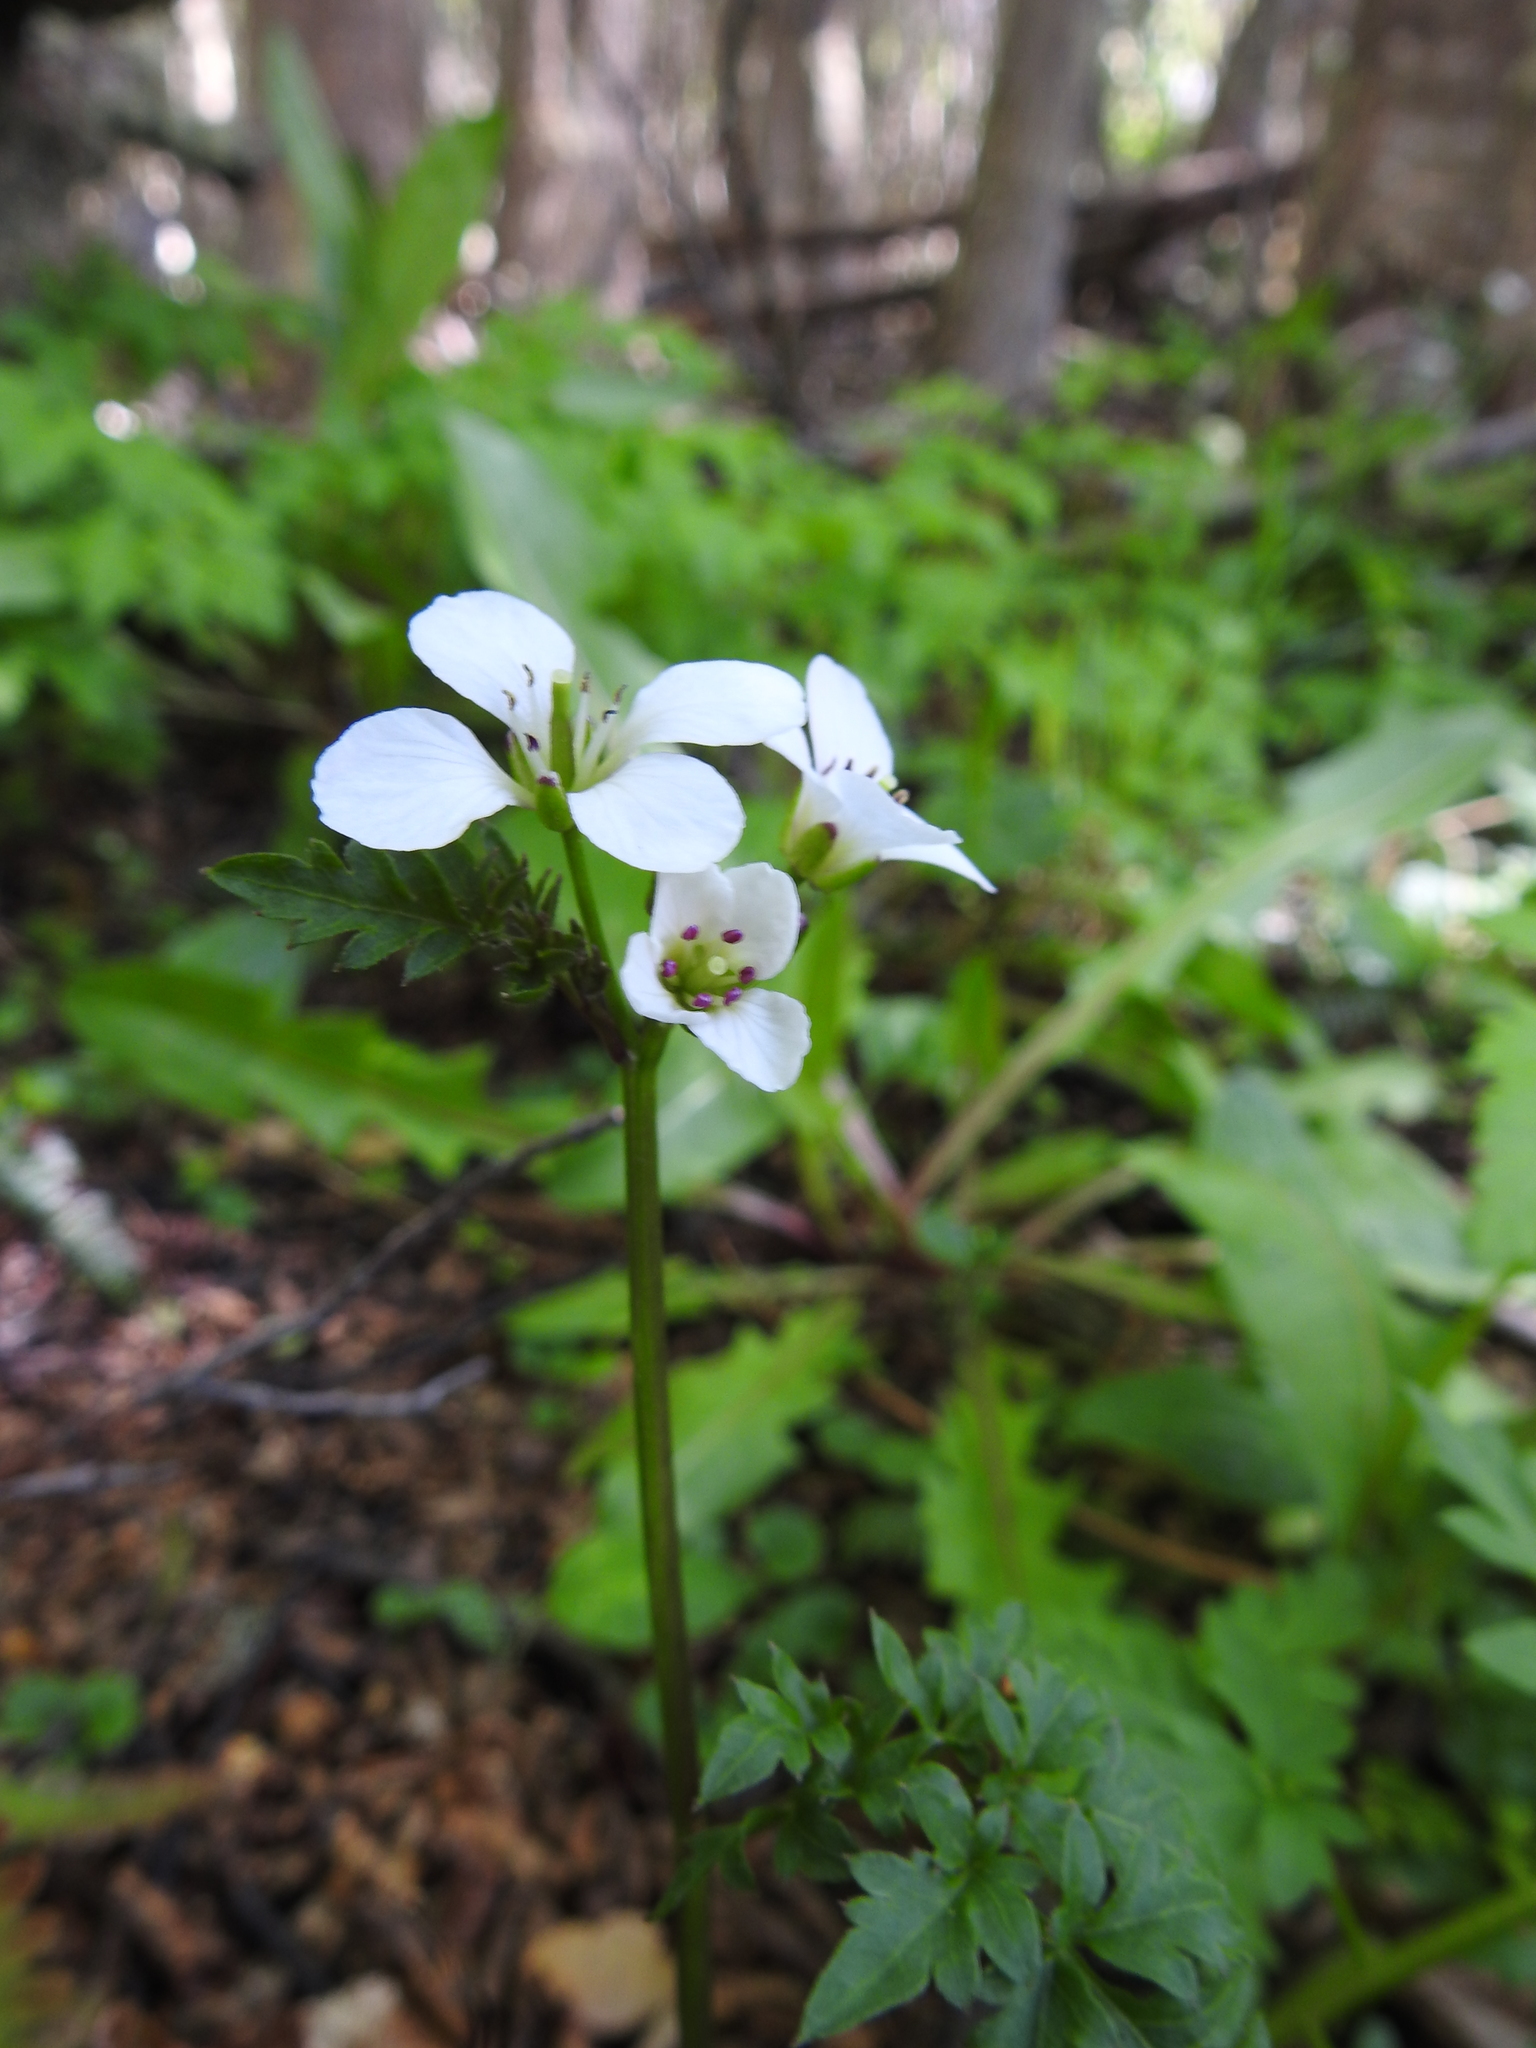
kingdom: Plantae
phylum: Tracheophyta
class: Magnoliopsida
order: Brassicales
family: Brassicaceae
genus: Cardamine
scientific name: Cardamine geraniifolia
